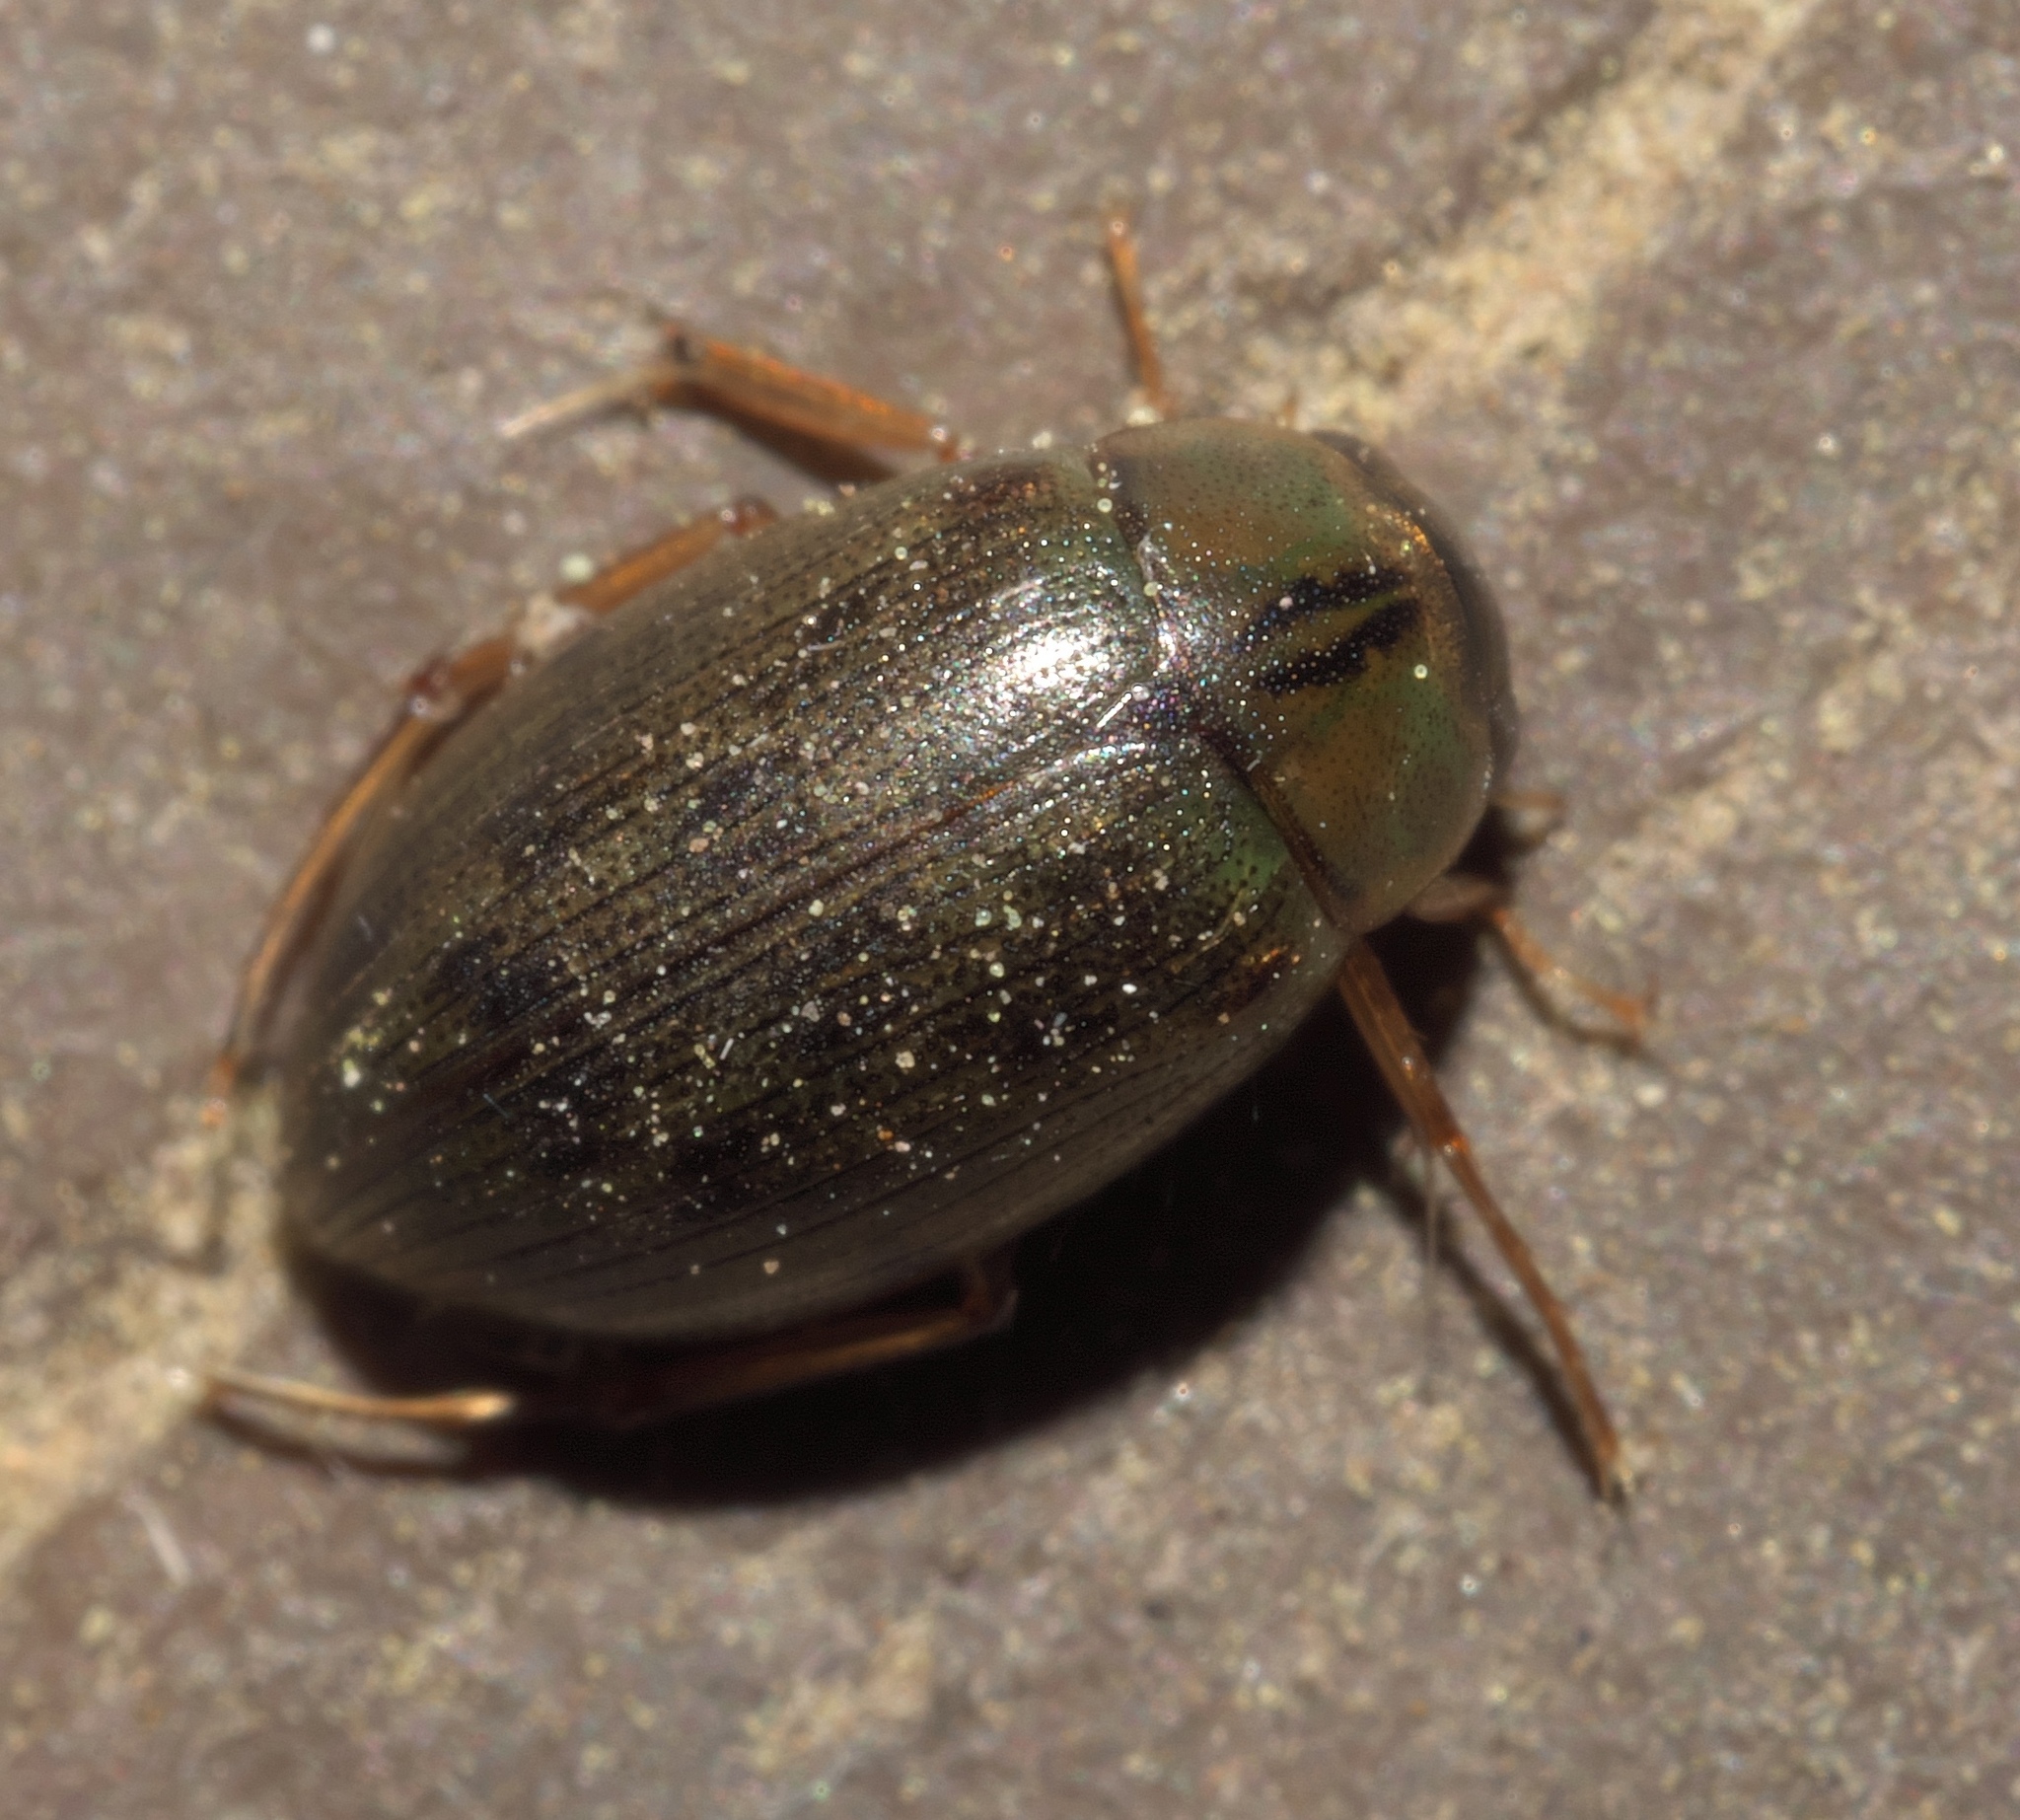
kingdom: Animalia
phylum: Arthropoda
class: Insecta
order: Coleoptera
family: Hydrophilidae
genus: Berosus
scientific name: Berosus
